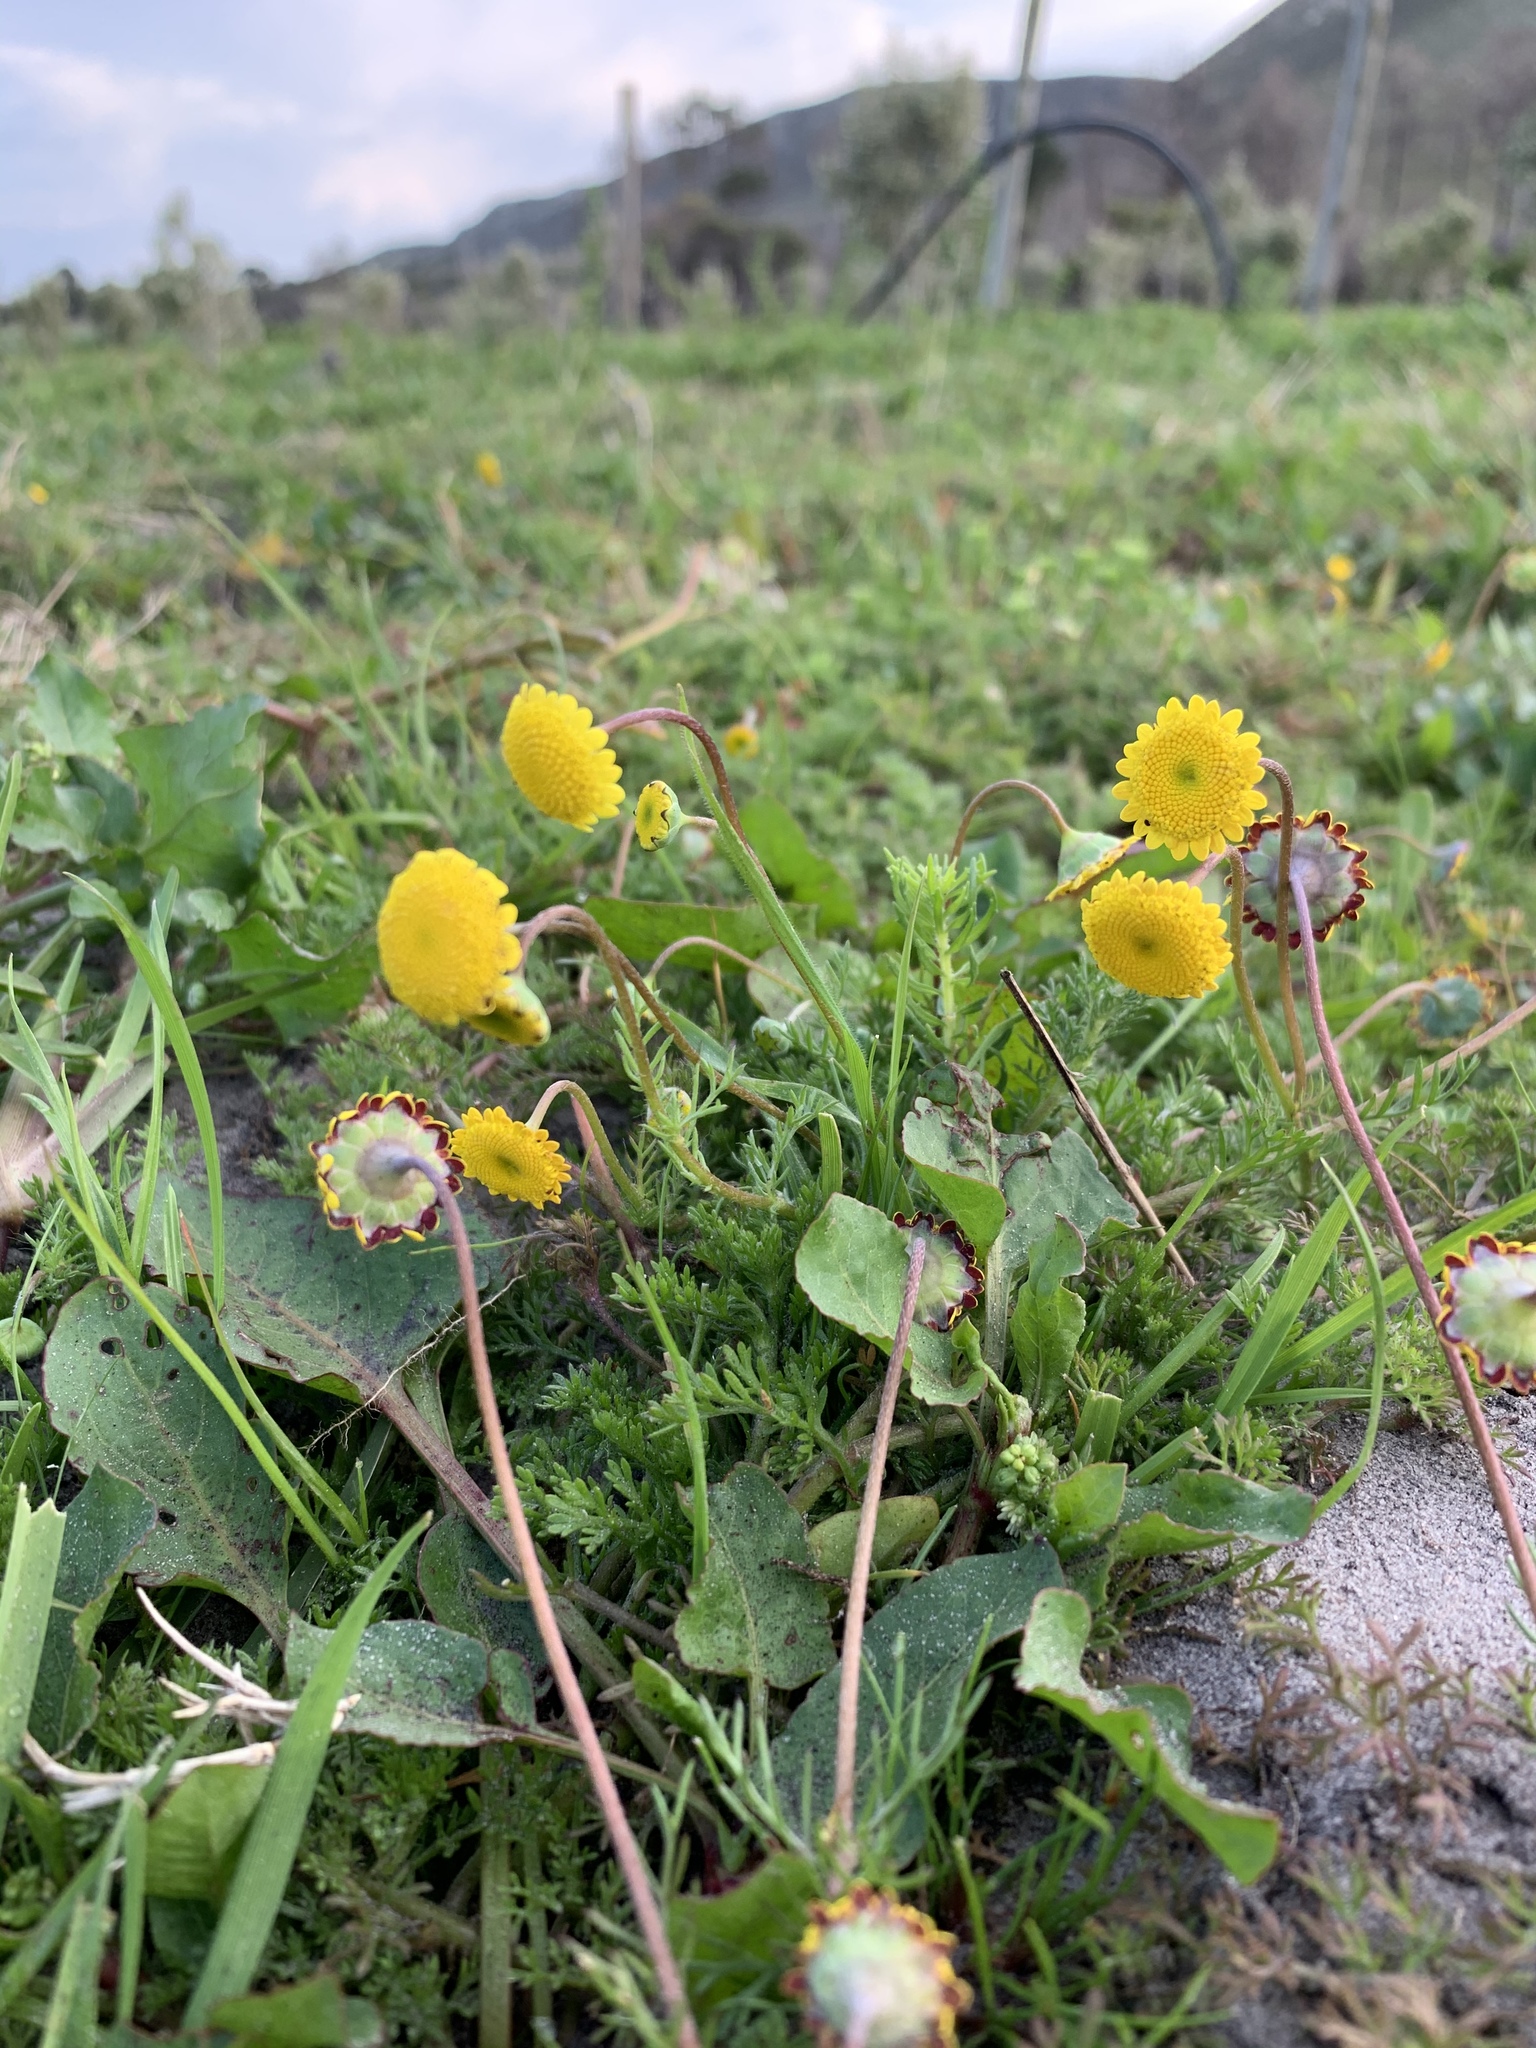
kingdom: Plantae
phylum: Tracheophyta
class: Magnoliopsida
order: Asterales
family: Asteraceae
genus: Cotula
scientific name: Cotula pruinosa
